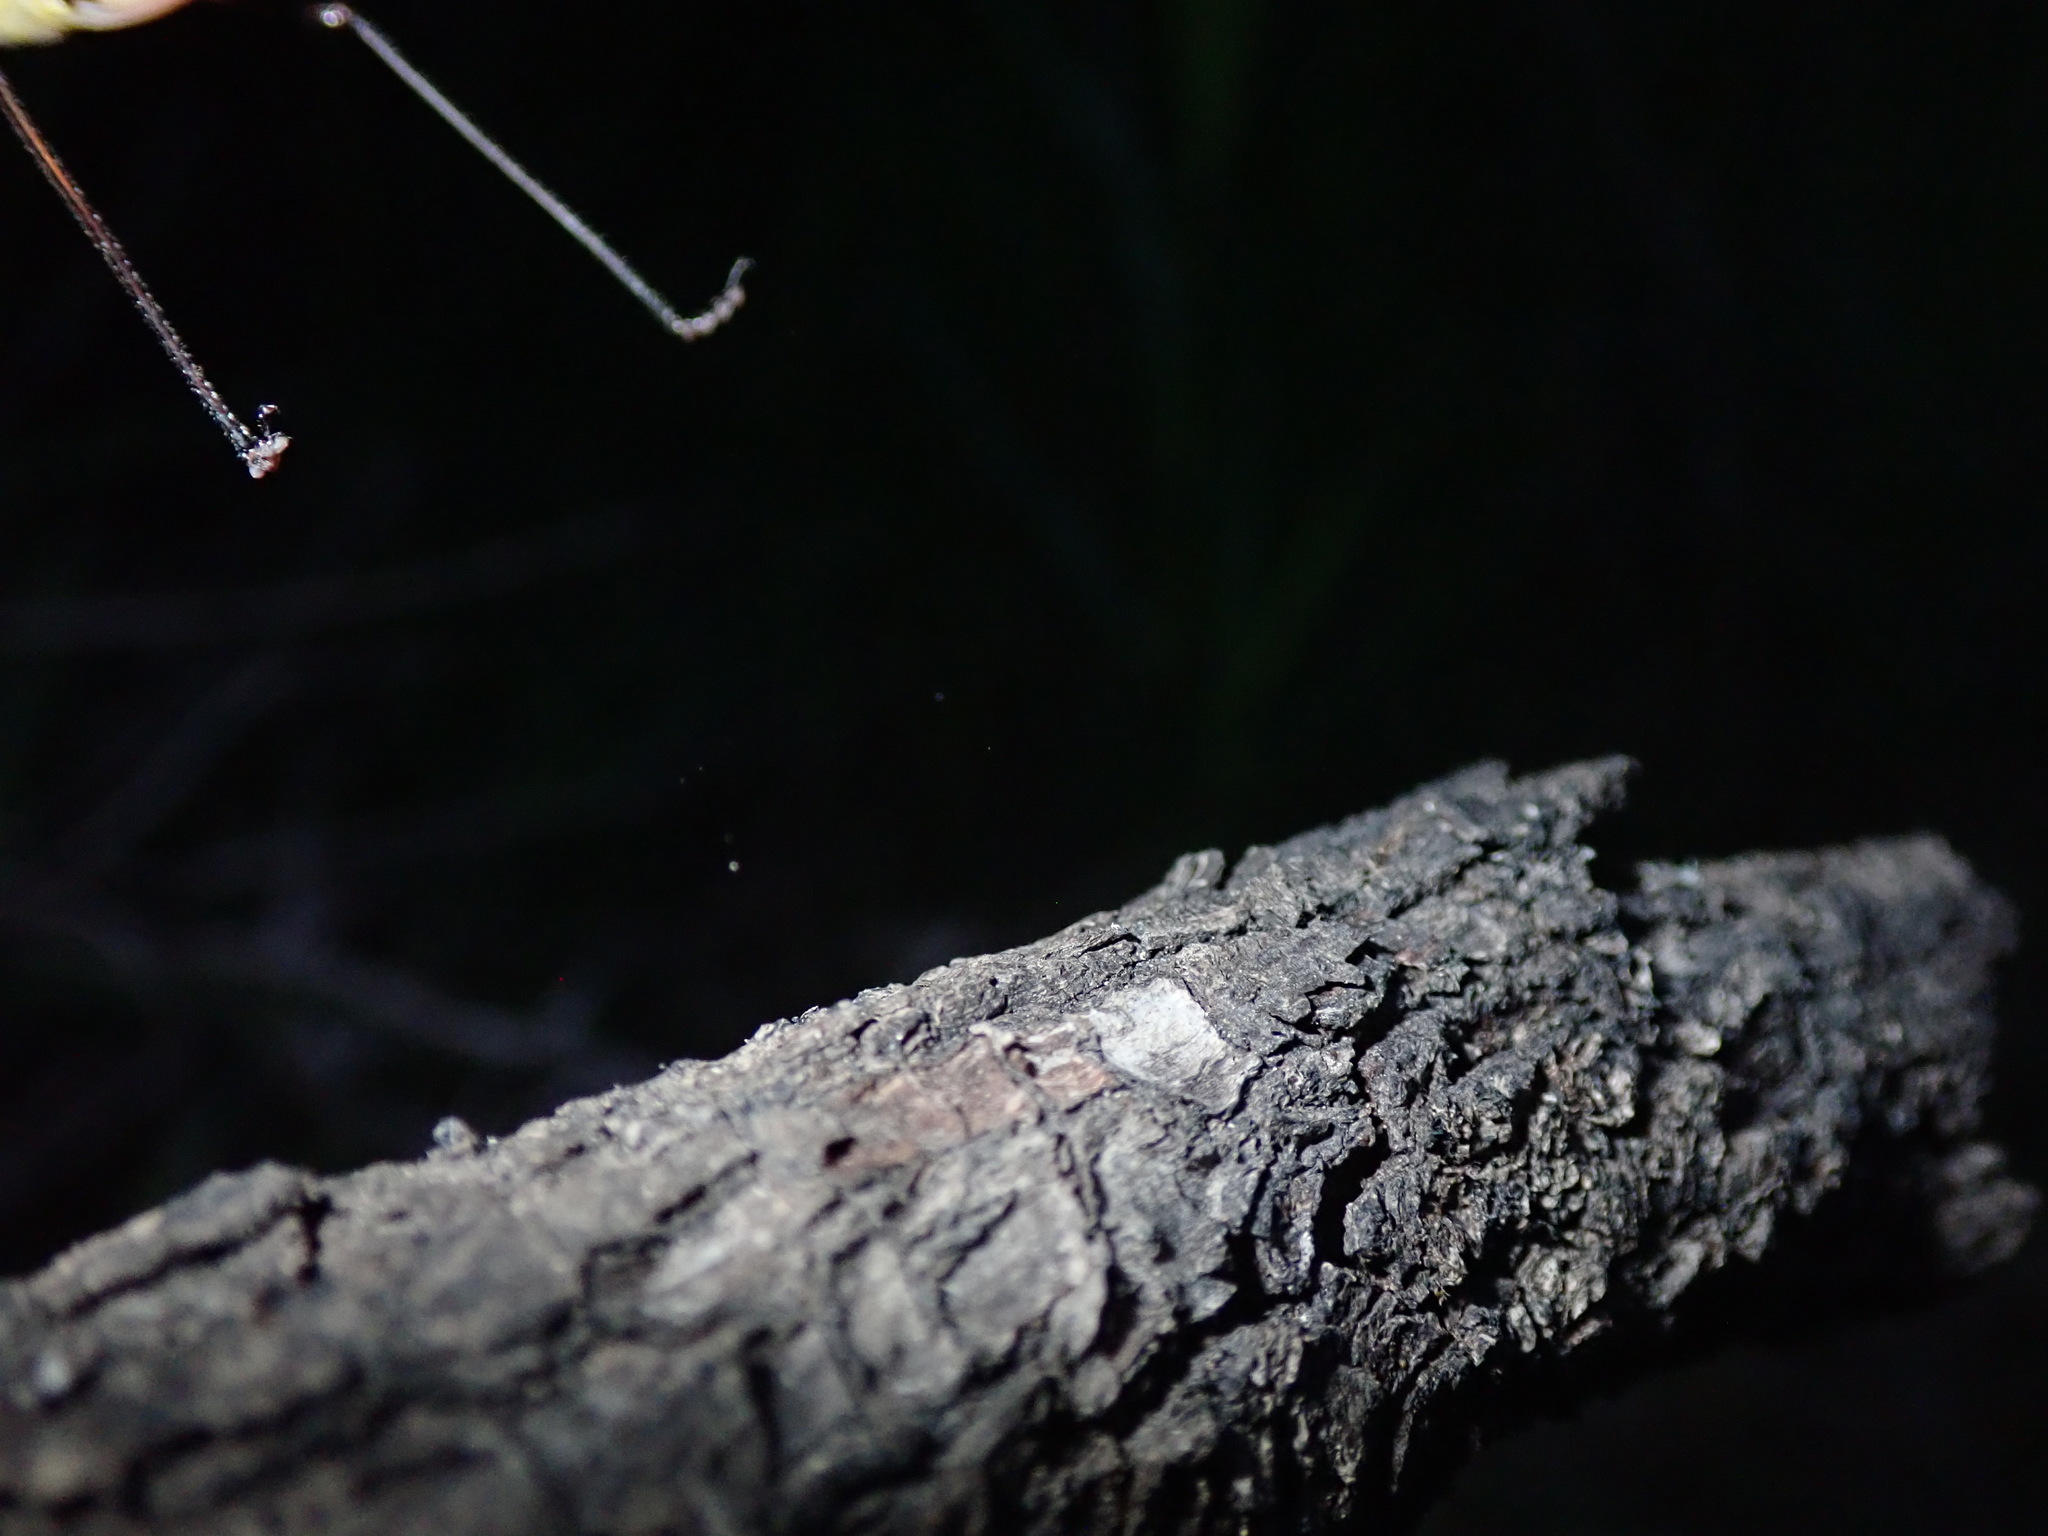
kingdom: Animalia
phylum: Arthropoda
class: Insecta
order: Orthoptera
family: Tettigoniidae
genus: Barbitistes
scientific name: Barbitistes ocskayi
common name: Black saw bush-cricket
